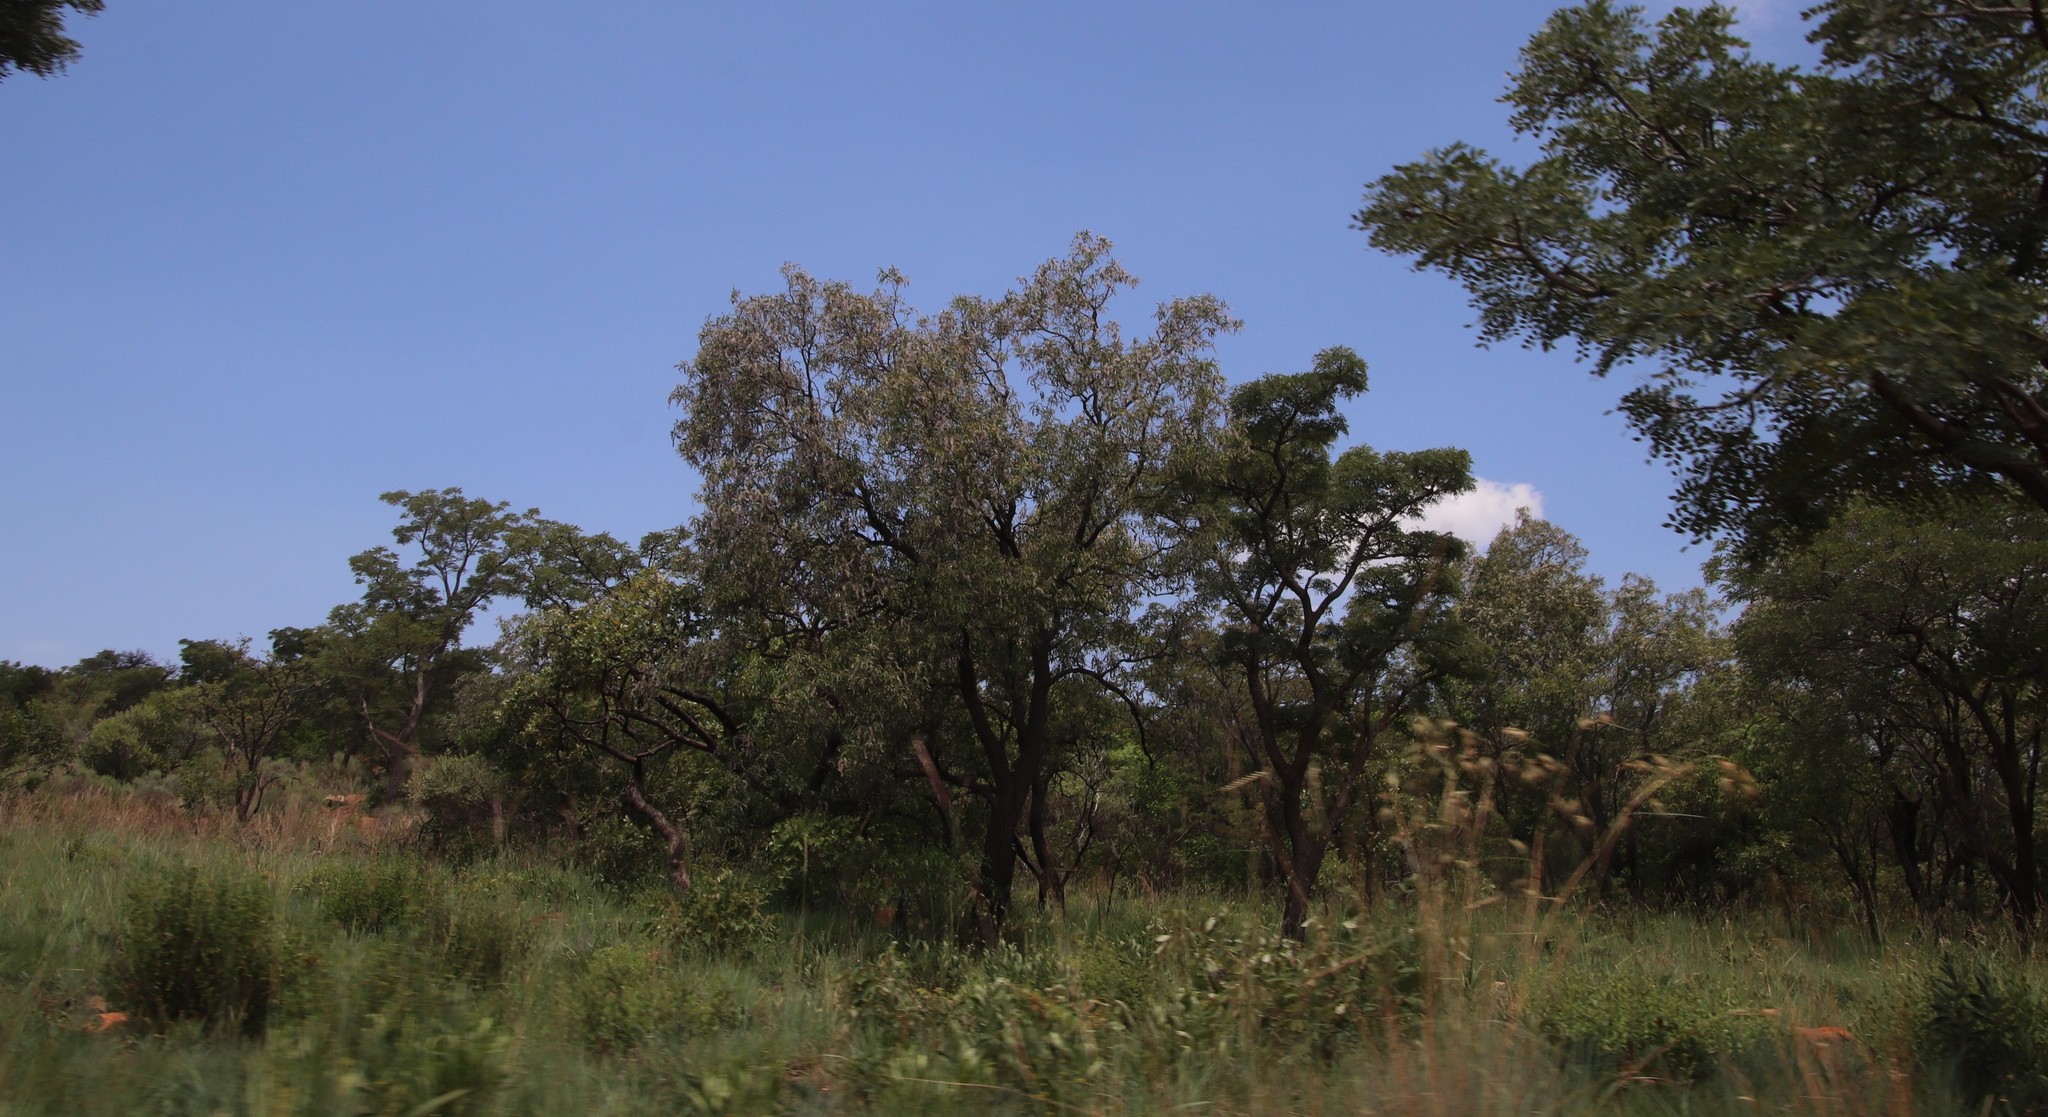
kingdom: Plantae
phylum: Tracheophyta
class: Magnoliopsida
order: Proteales
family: Proteaceae
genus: Faurea
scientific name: Faurea saligna
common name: African bean
